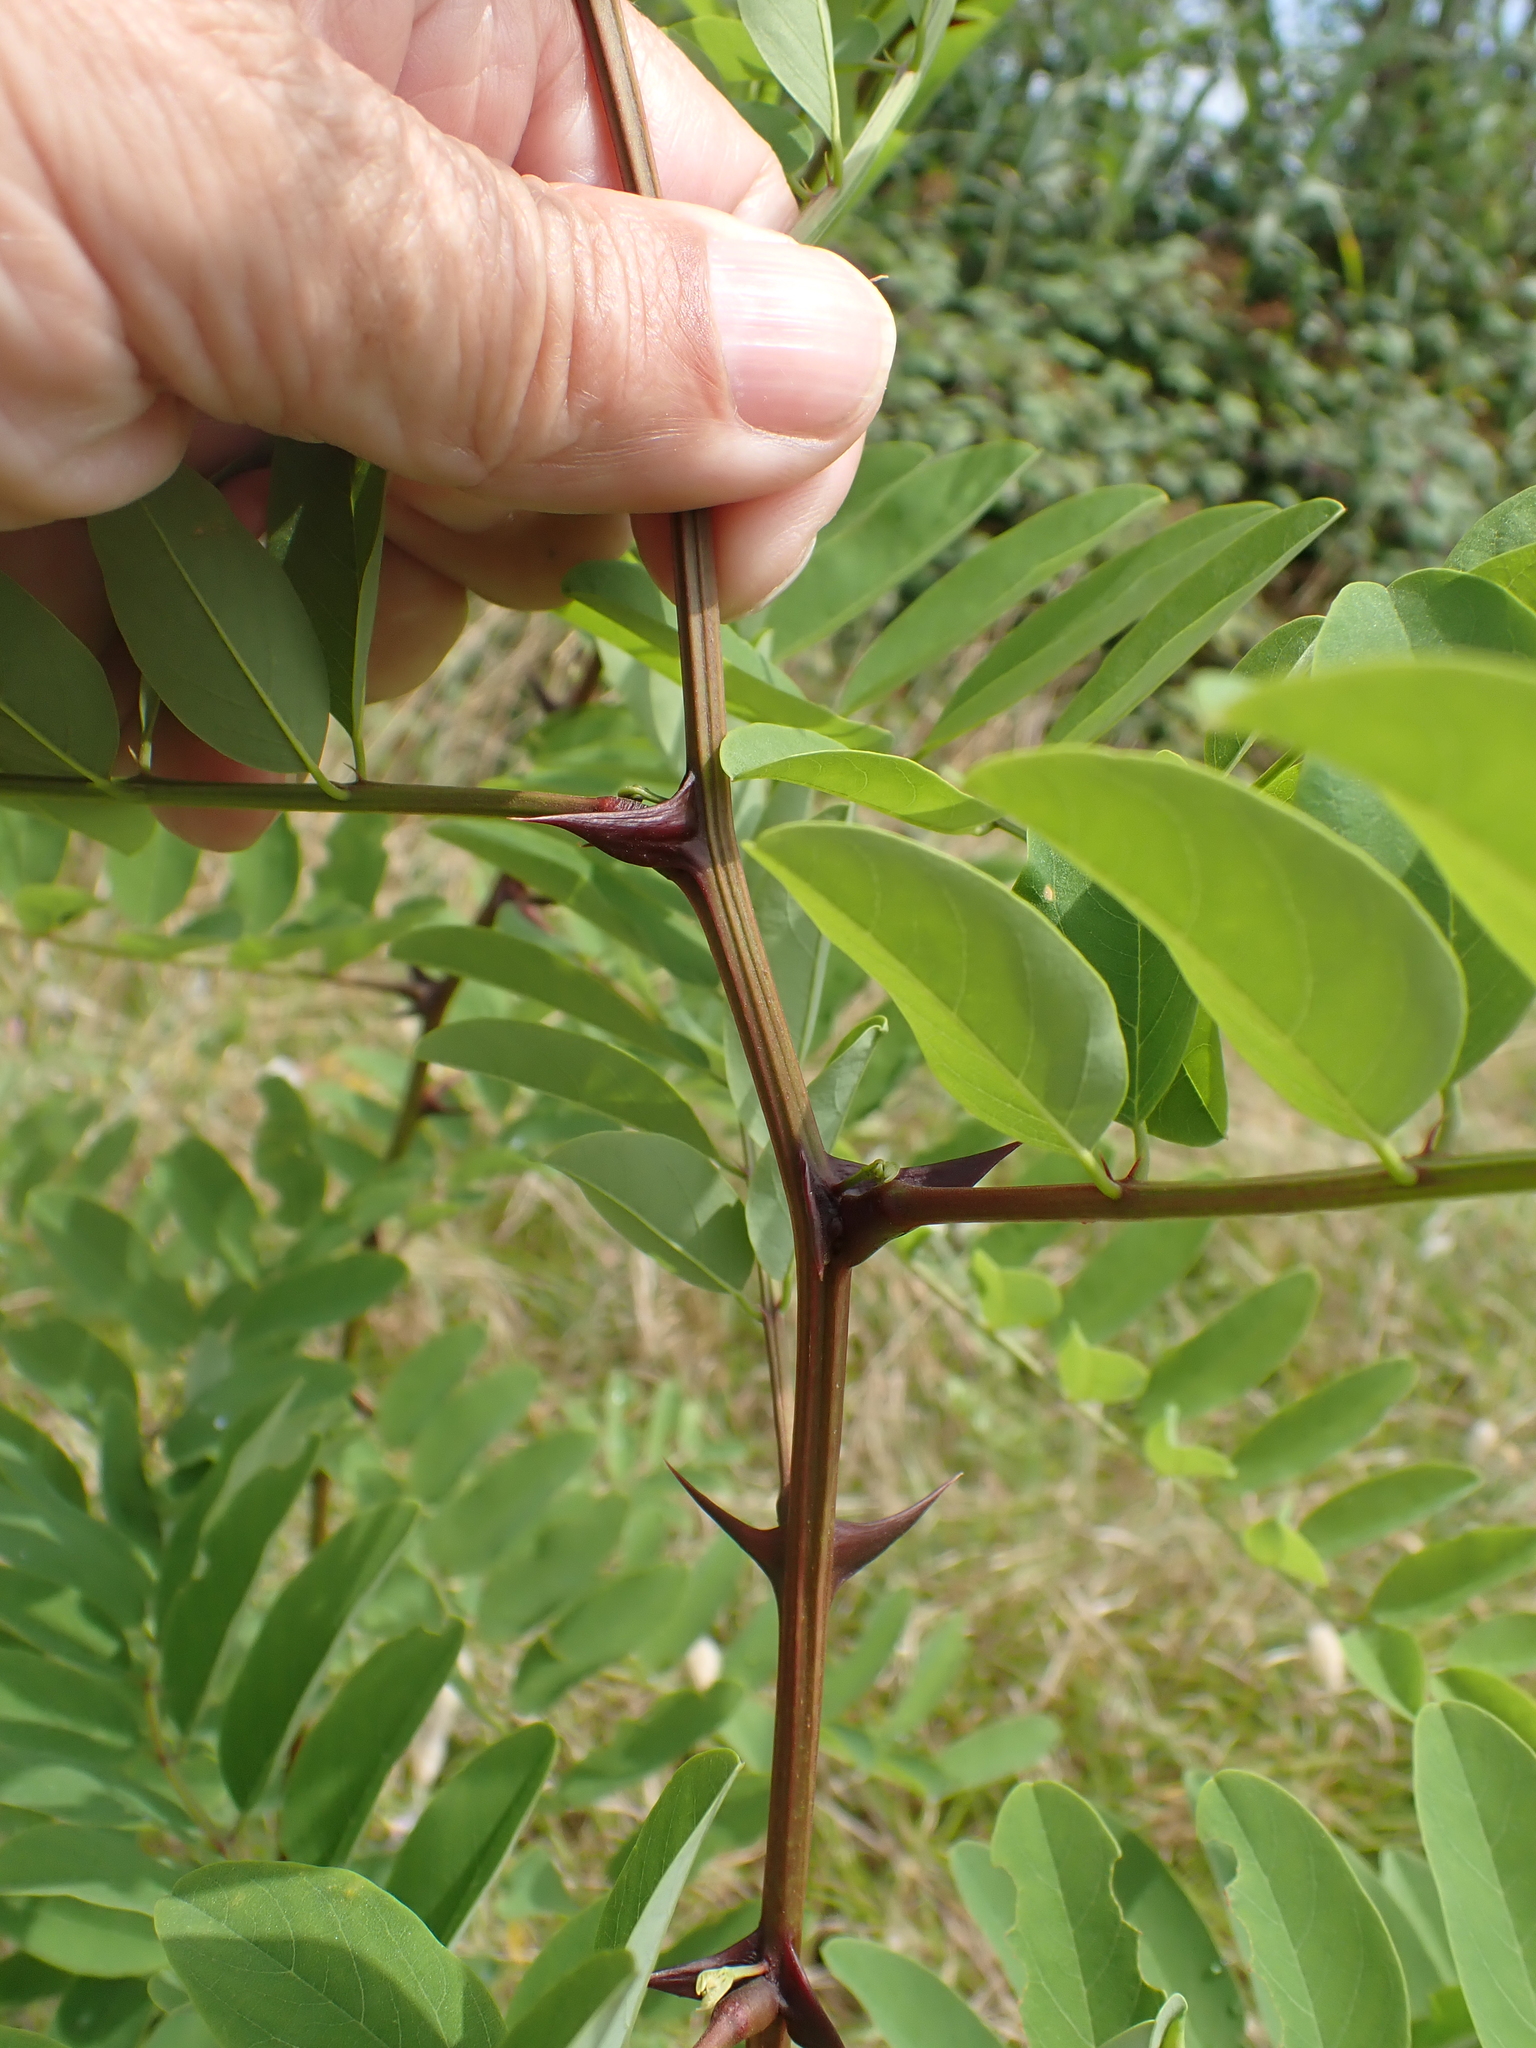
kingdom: Plantae
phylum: Tracheophyta
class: Magnoliopsida
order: Fabales
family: Fabaceae
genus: Robinia
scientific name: Robinia pseudoacacia
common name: Black locust
